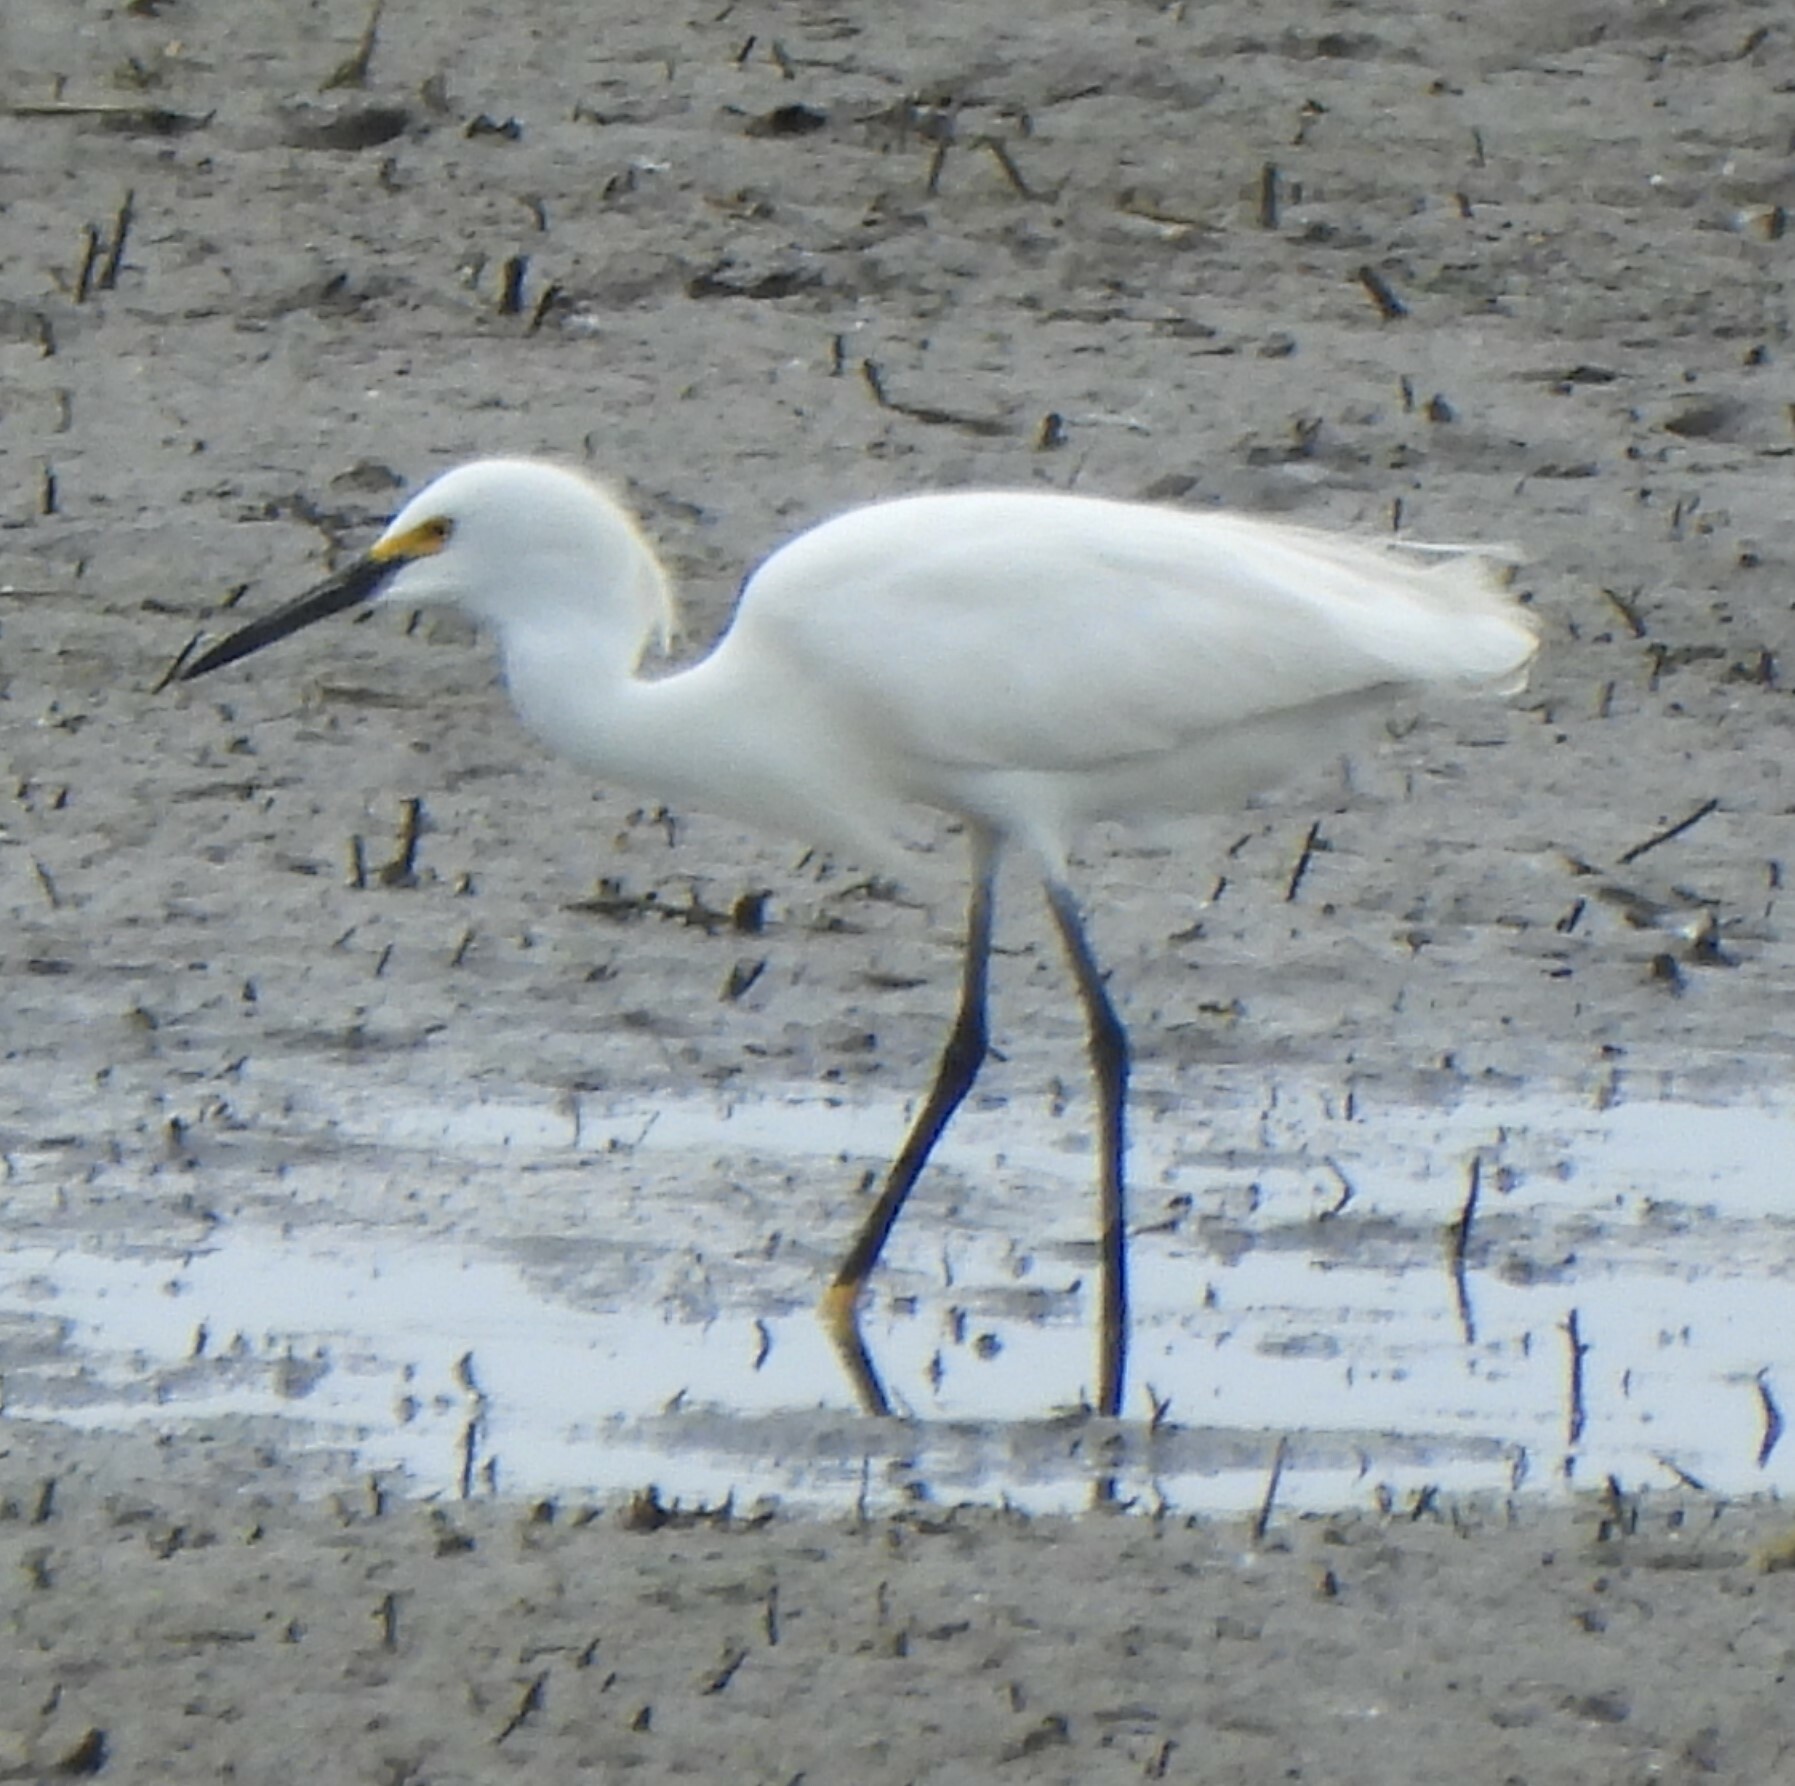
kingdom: Animalia
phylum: Chordata
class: Aves
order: Pelecaniformes
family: Ardeidae
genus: Egretta
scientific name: Egretta thula
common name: Snowy egret
